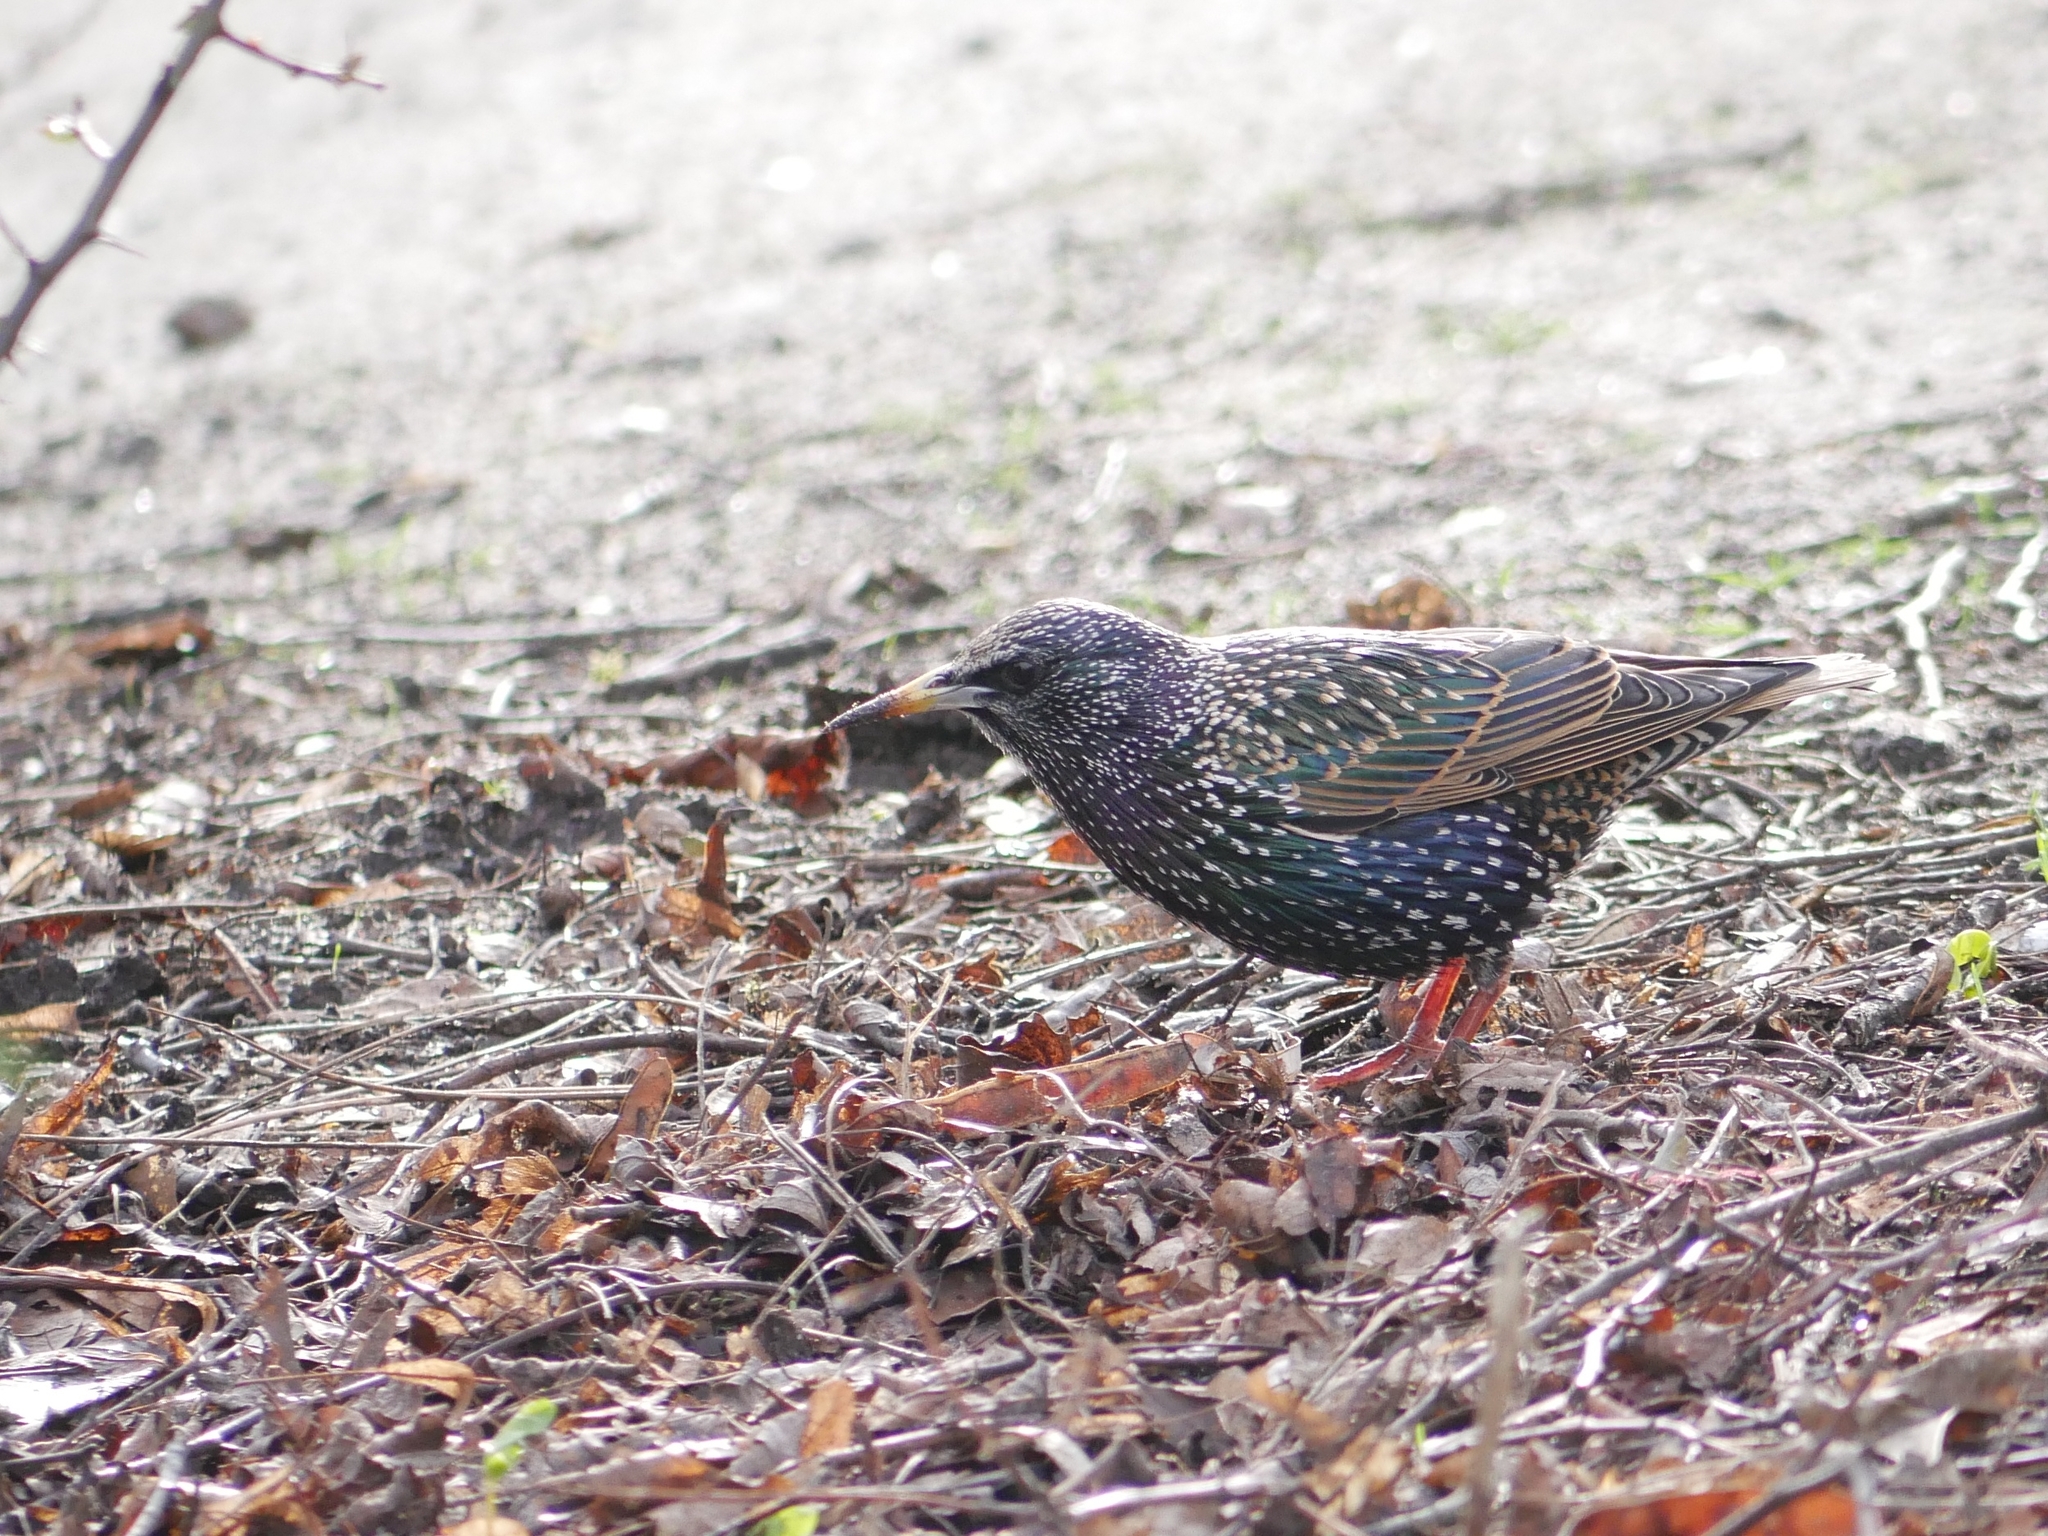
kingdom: Animalia
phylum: Chordata
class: Aves
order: Passeriformes
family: Sturnidae
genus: Sturnus
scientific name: Sturnus vulgaris
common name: Common starling
